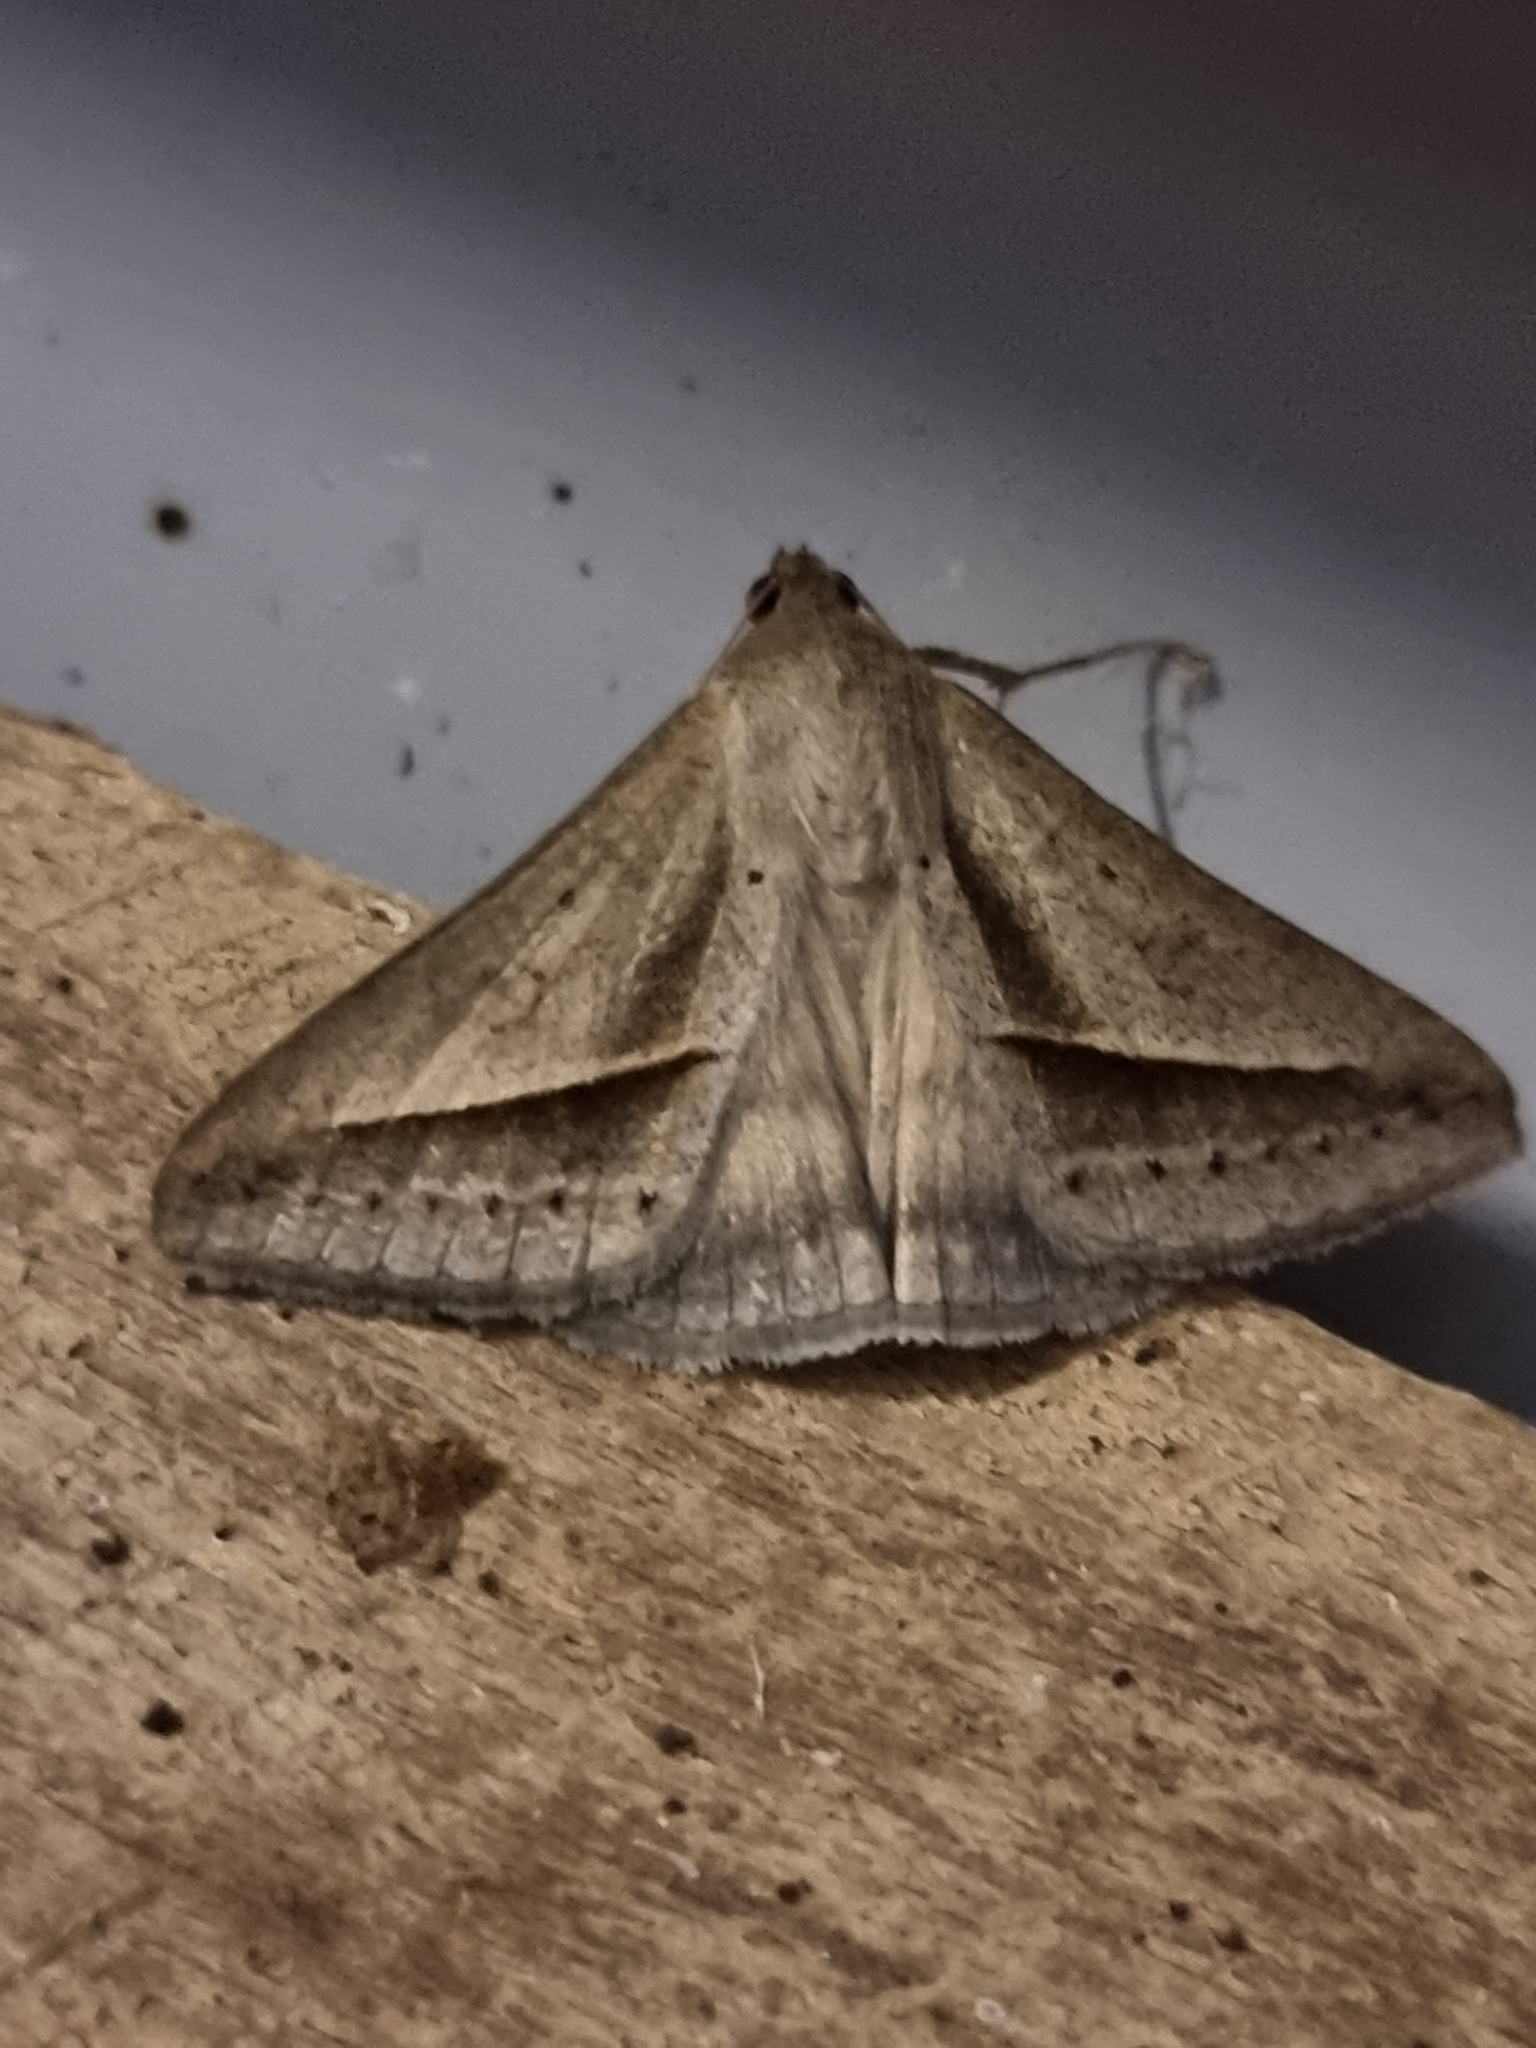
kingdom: Animalia
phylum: Arthropoda
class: Insecta
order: Lepidoptera
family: Erebidae
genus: Mocis
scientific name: Mocis frugalis
